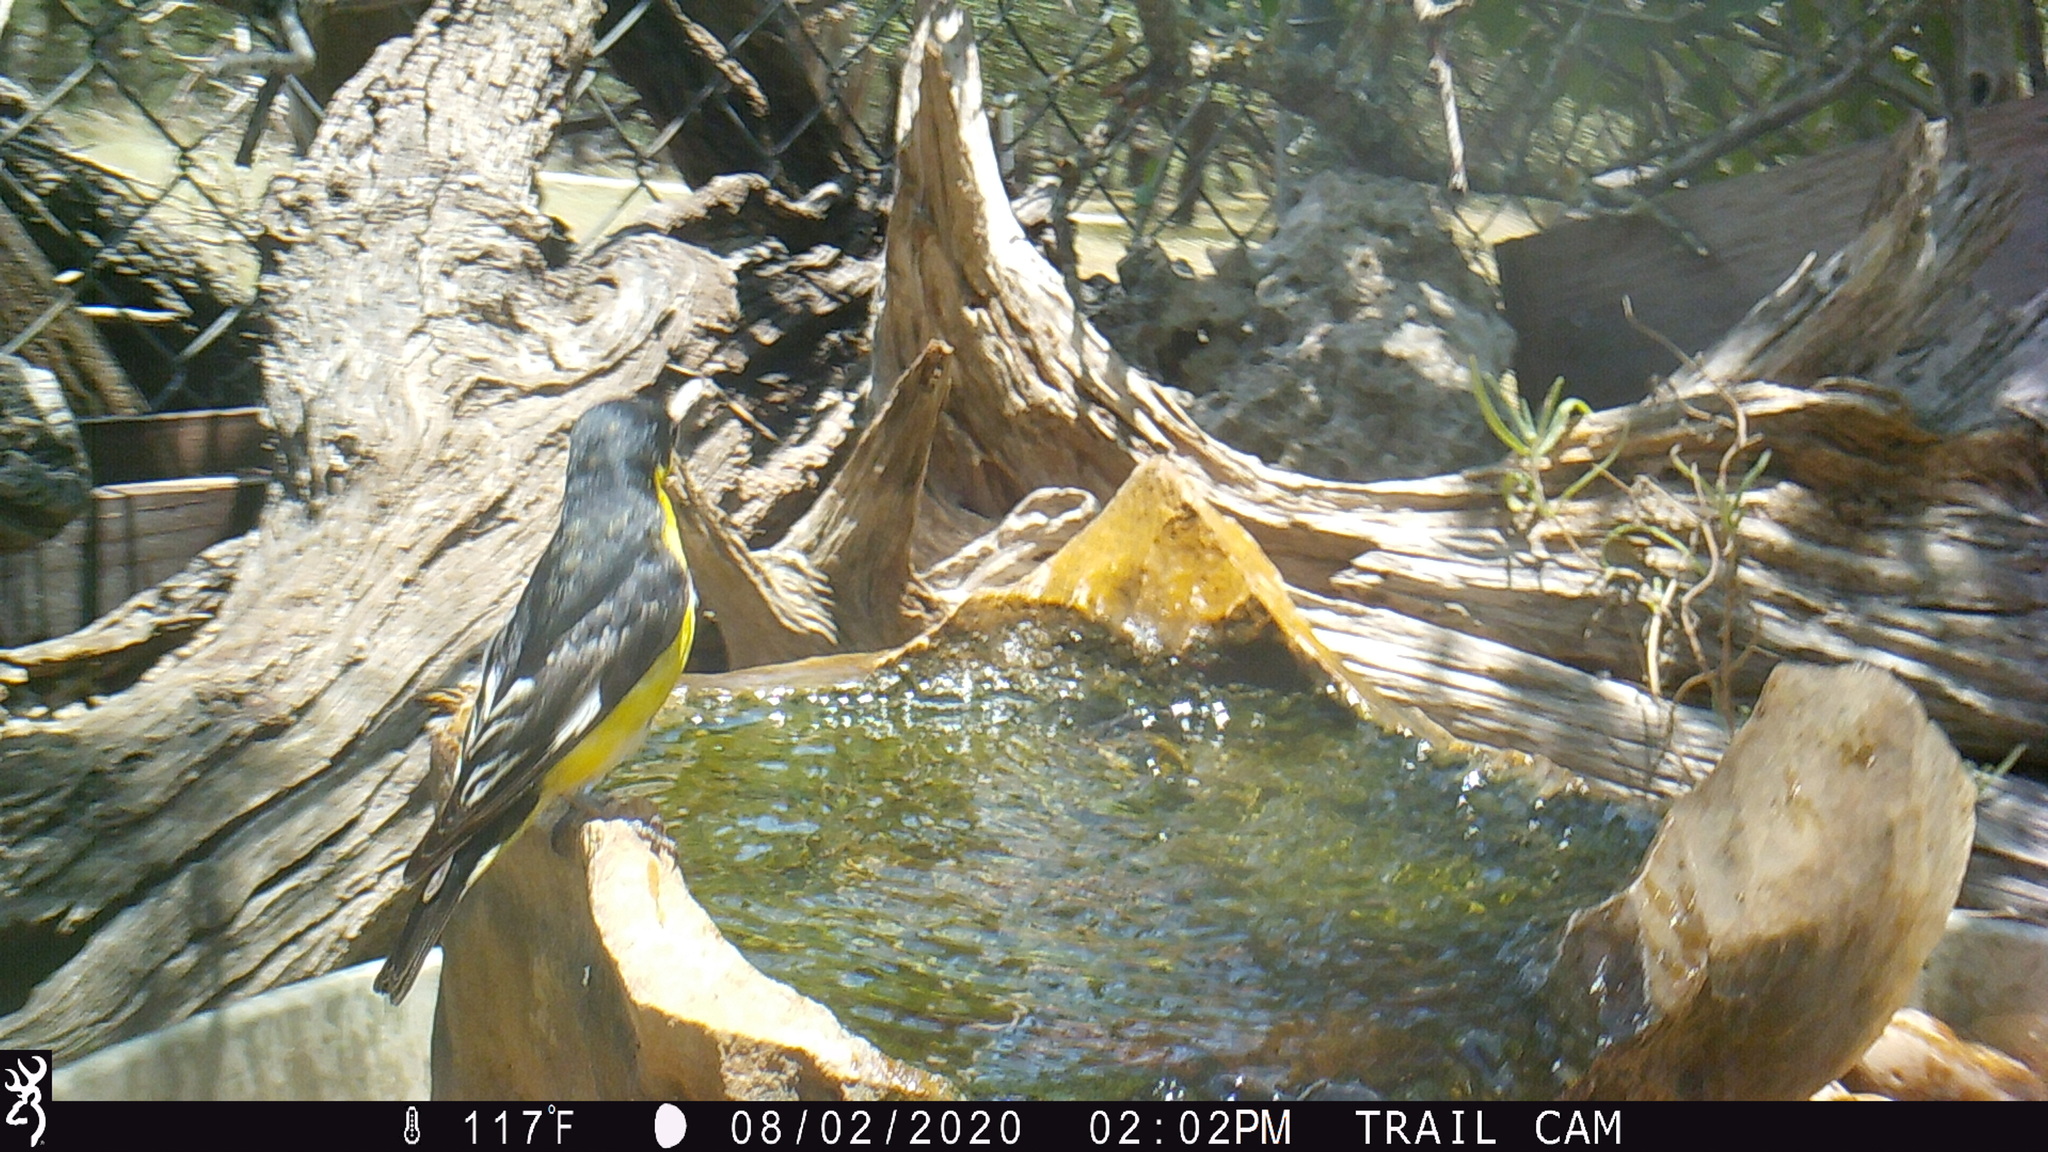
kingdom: Animalia
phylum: Chordata
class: Aves
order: Passeriformes
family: Fringillidae
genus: Spinus
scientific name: Spinus psaltria
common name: Lesser goldfinch
